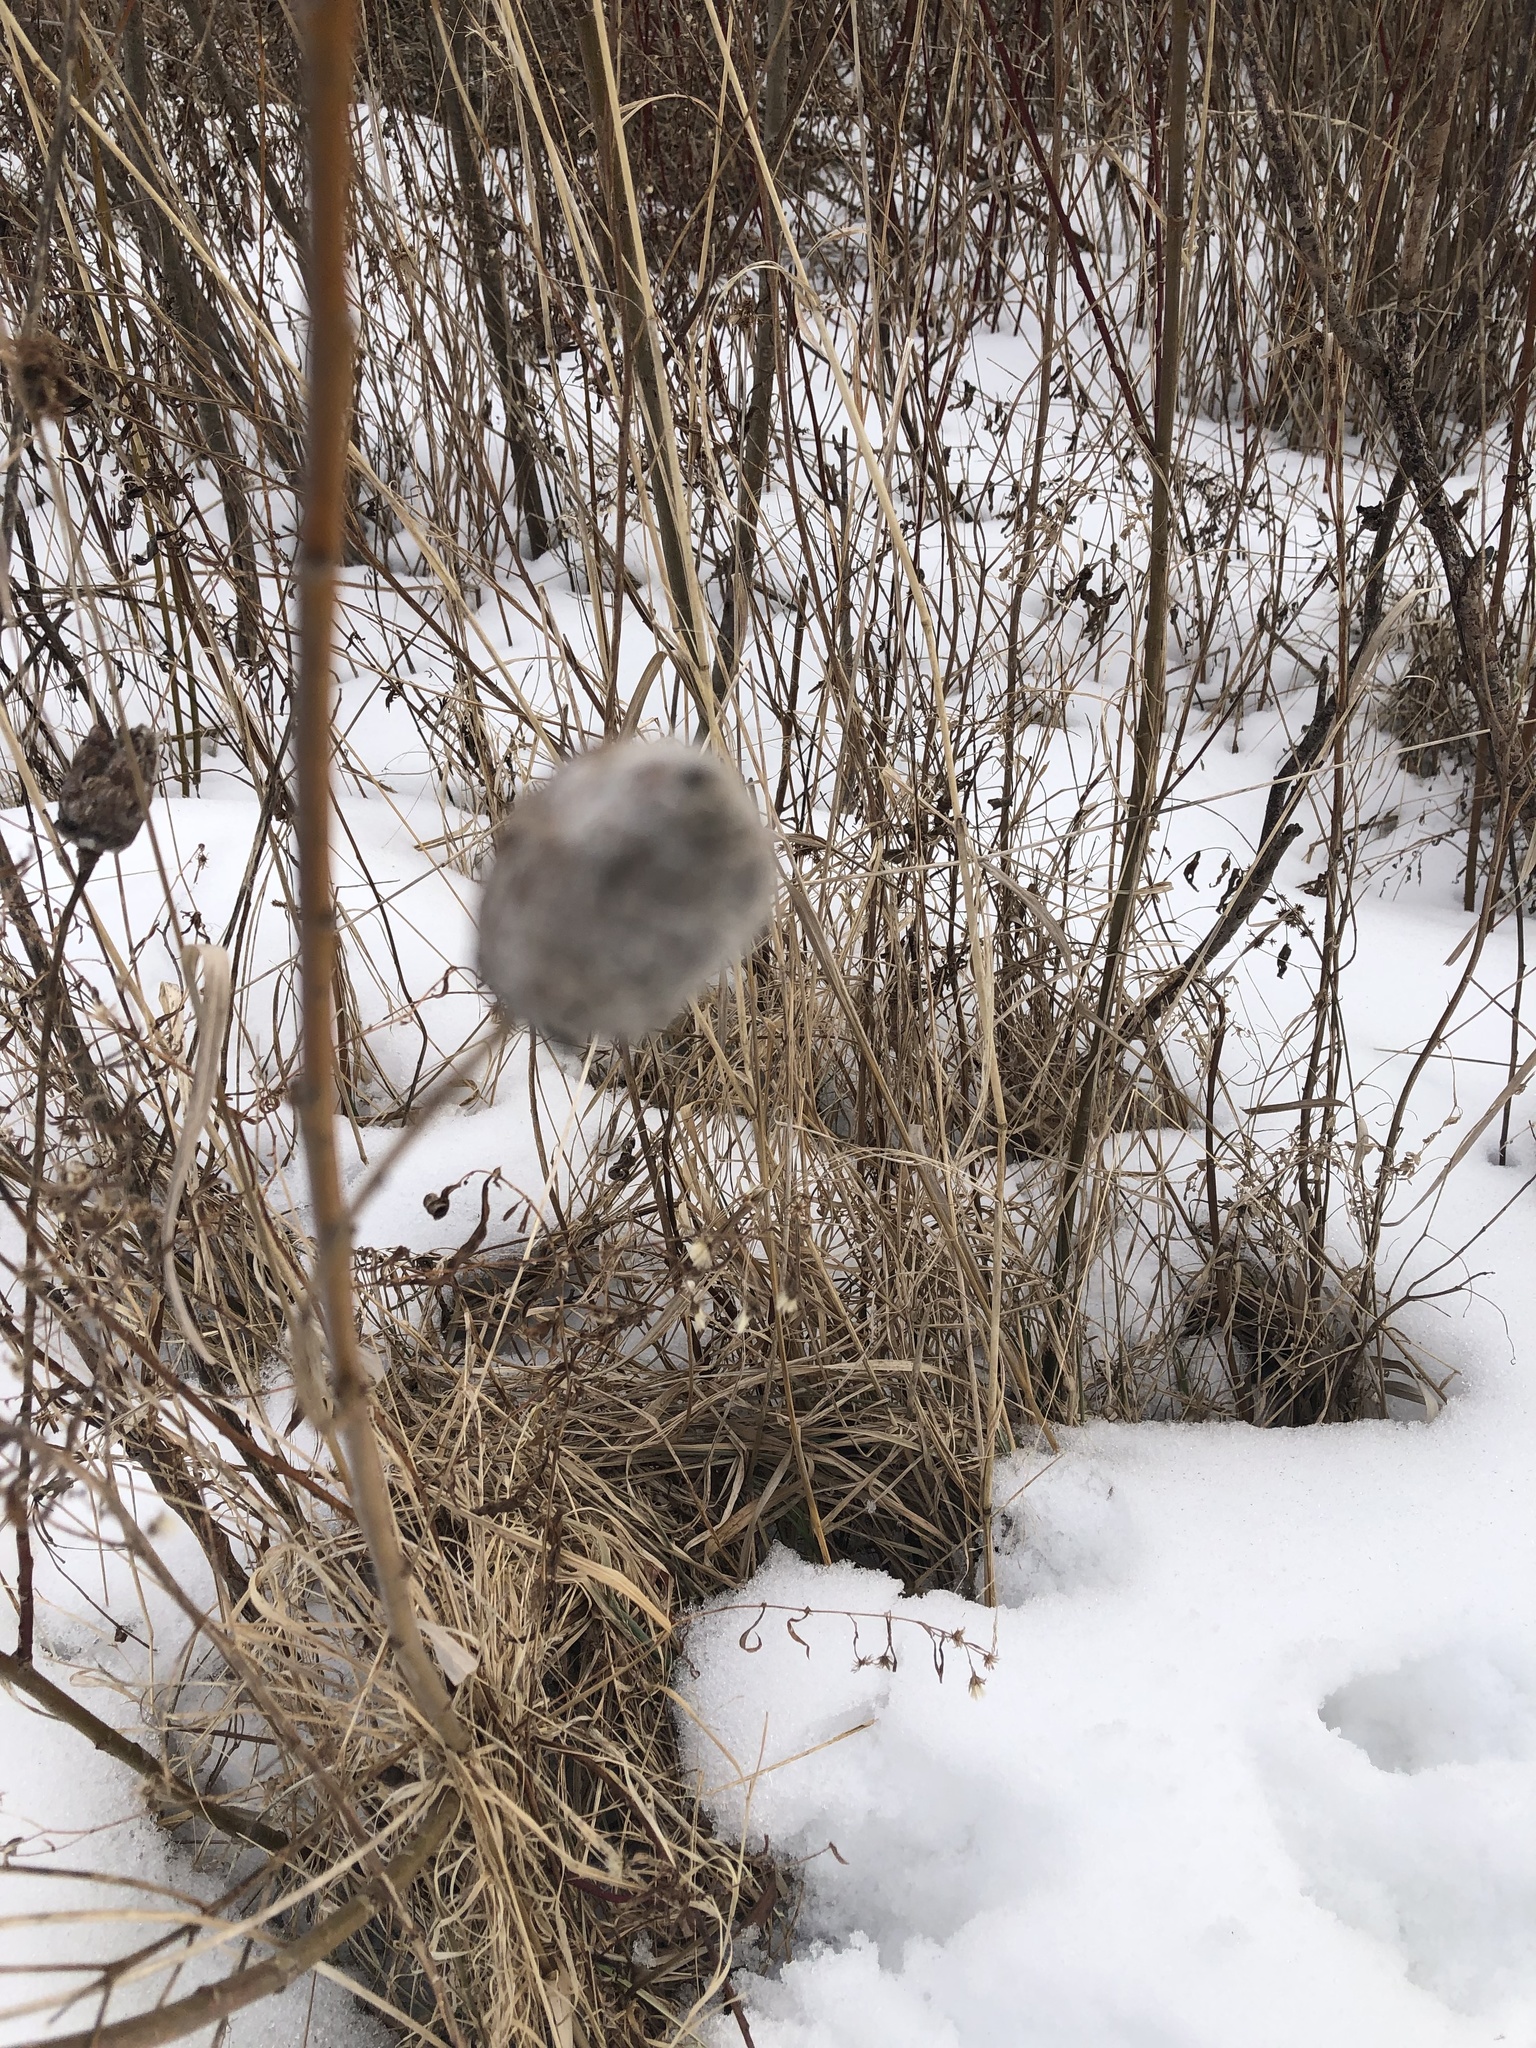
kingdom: Animalia
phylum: Arthropoda
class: Insecta
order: Diptera
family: Cecidomyiidae
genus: Rabdophaga
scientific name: Rabdophaga strobiloides
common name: Willow pinecone gall midge
